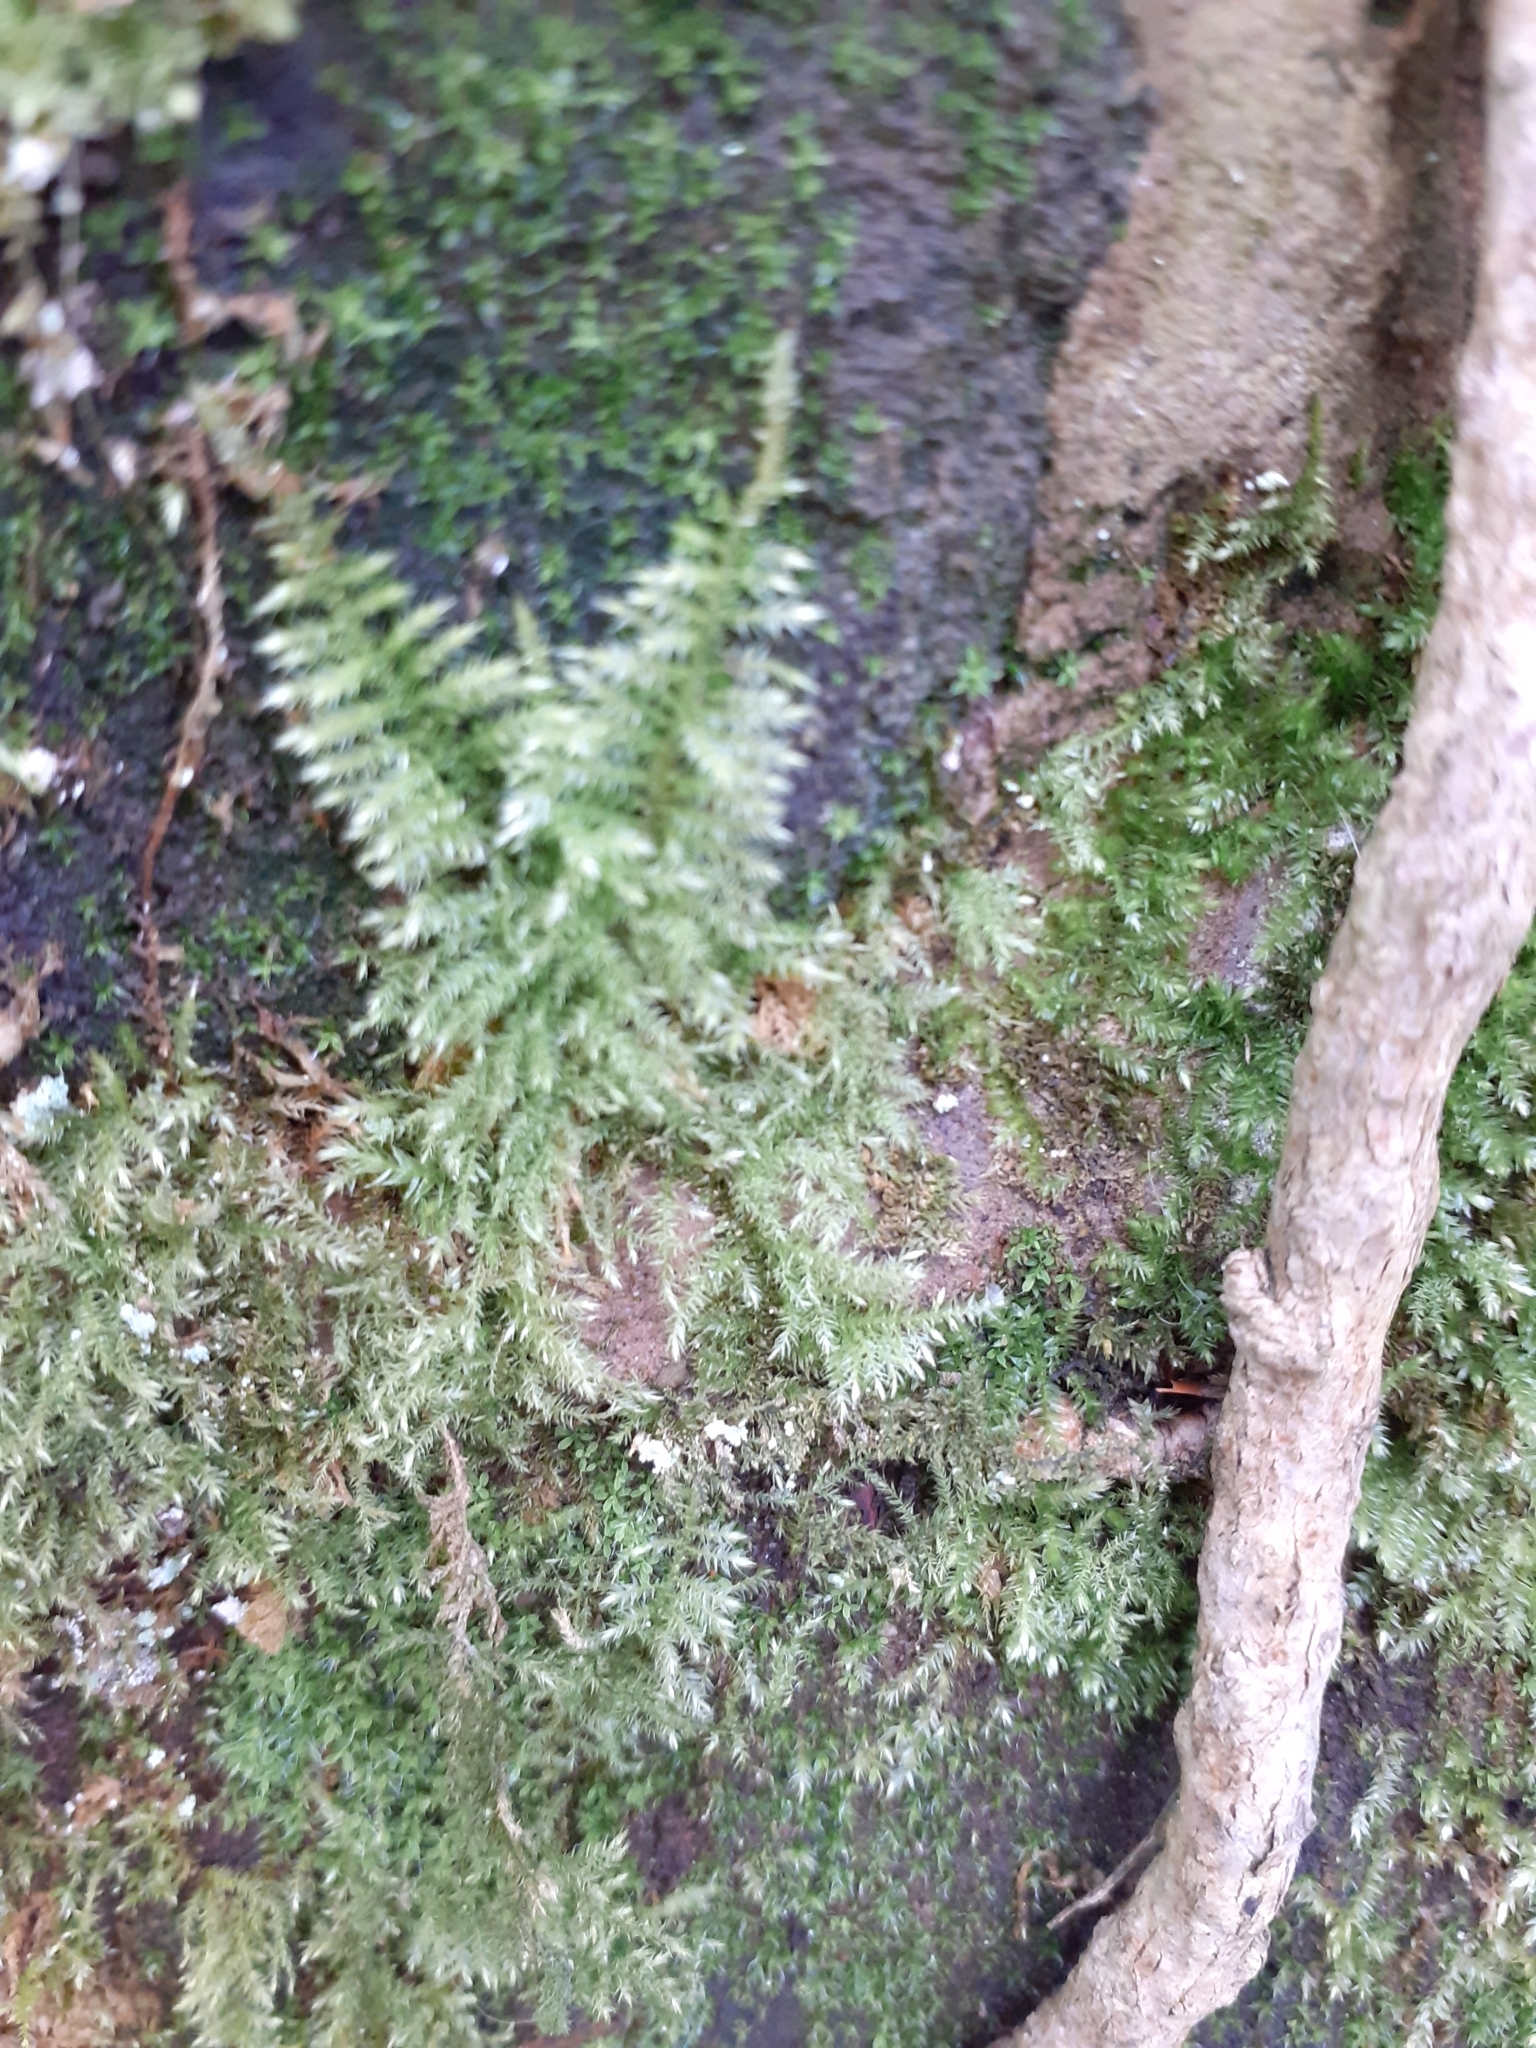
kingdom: Plantae
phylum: Bryophyta
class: Bryopsida
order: Hypnales
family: Brachytheciaceae
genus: Kindbergia
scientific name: Kindbergia praelonga
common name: Slender beaked moss
